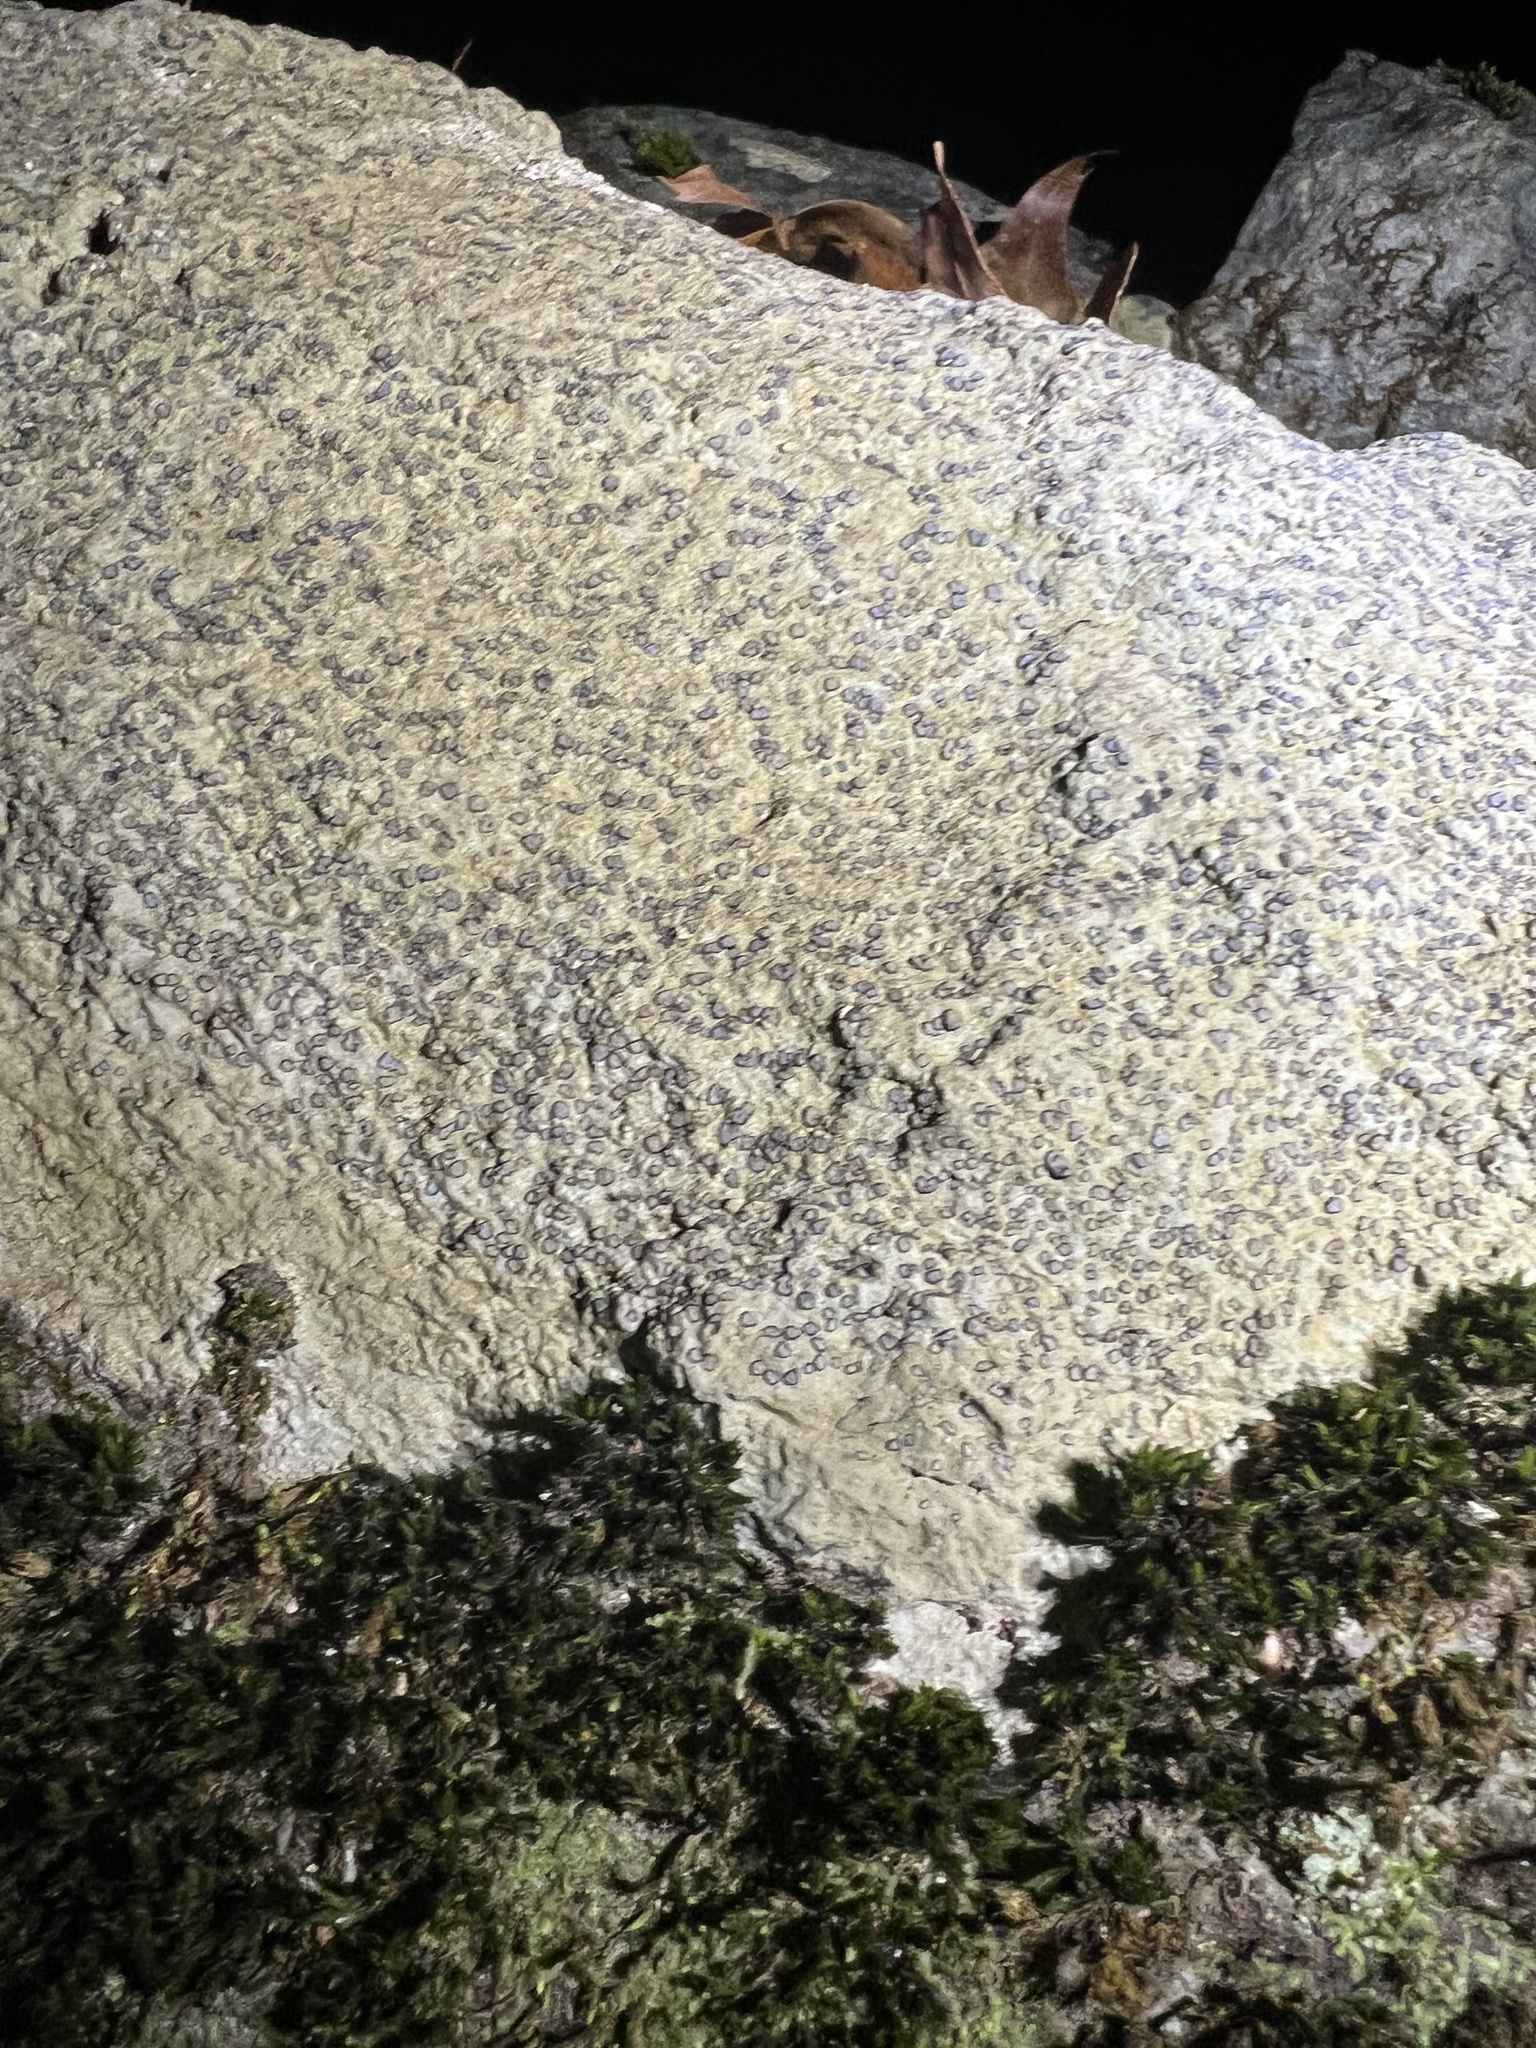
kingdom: Fungi
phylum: Ascomycota
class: Lecanoromycetes
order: Lecideales
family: Lecideaceae
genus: Porpidia
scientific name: Porpidia albocaerulescens
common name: Smokey-eyed boulder lichen
